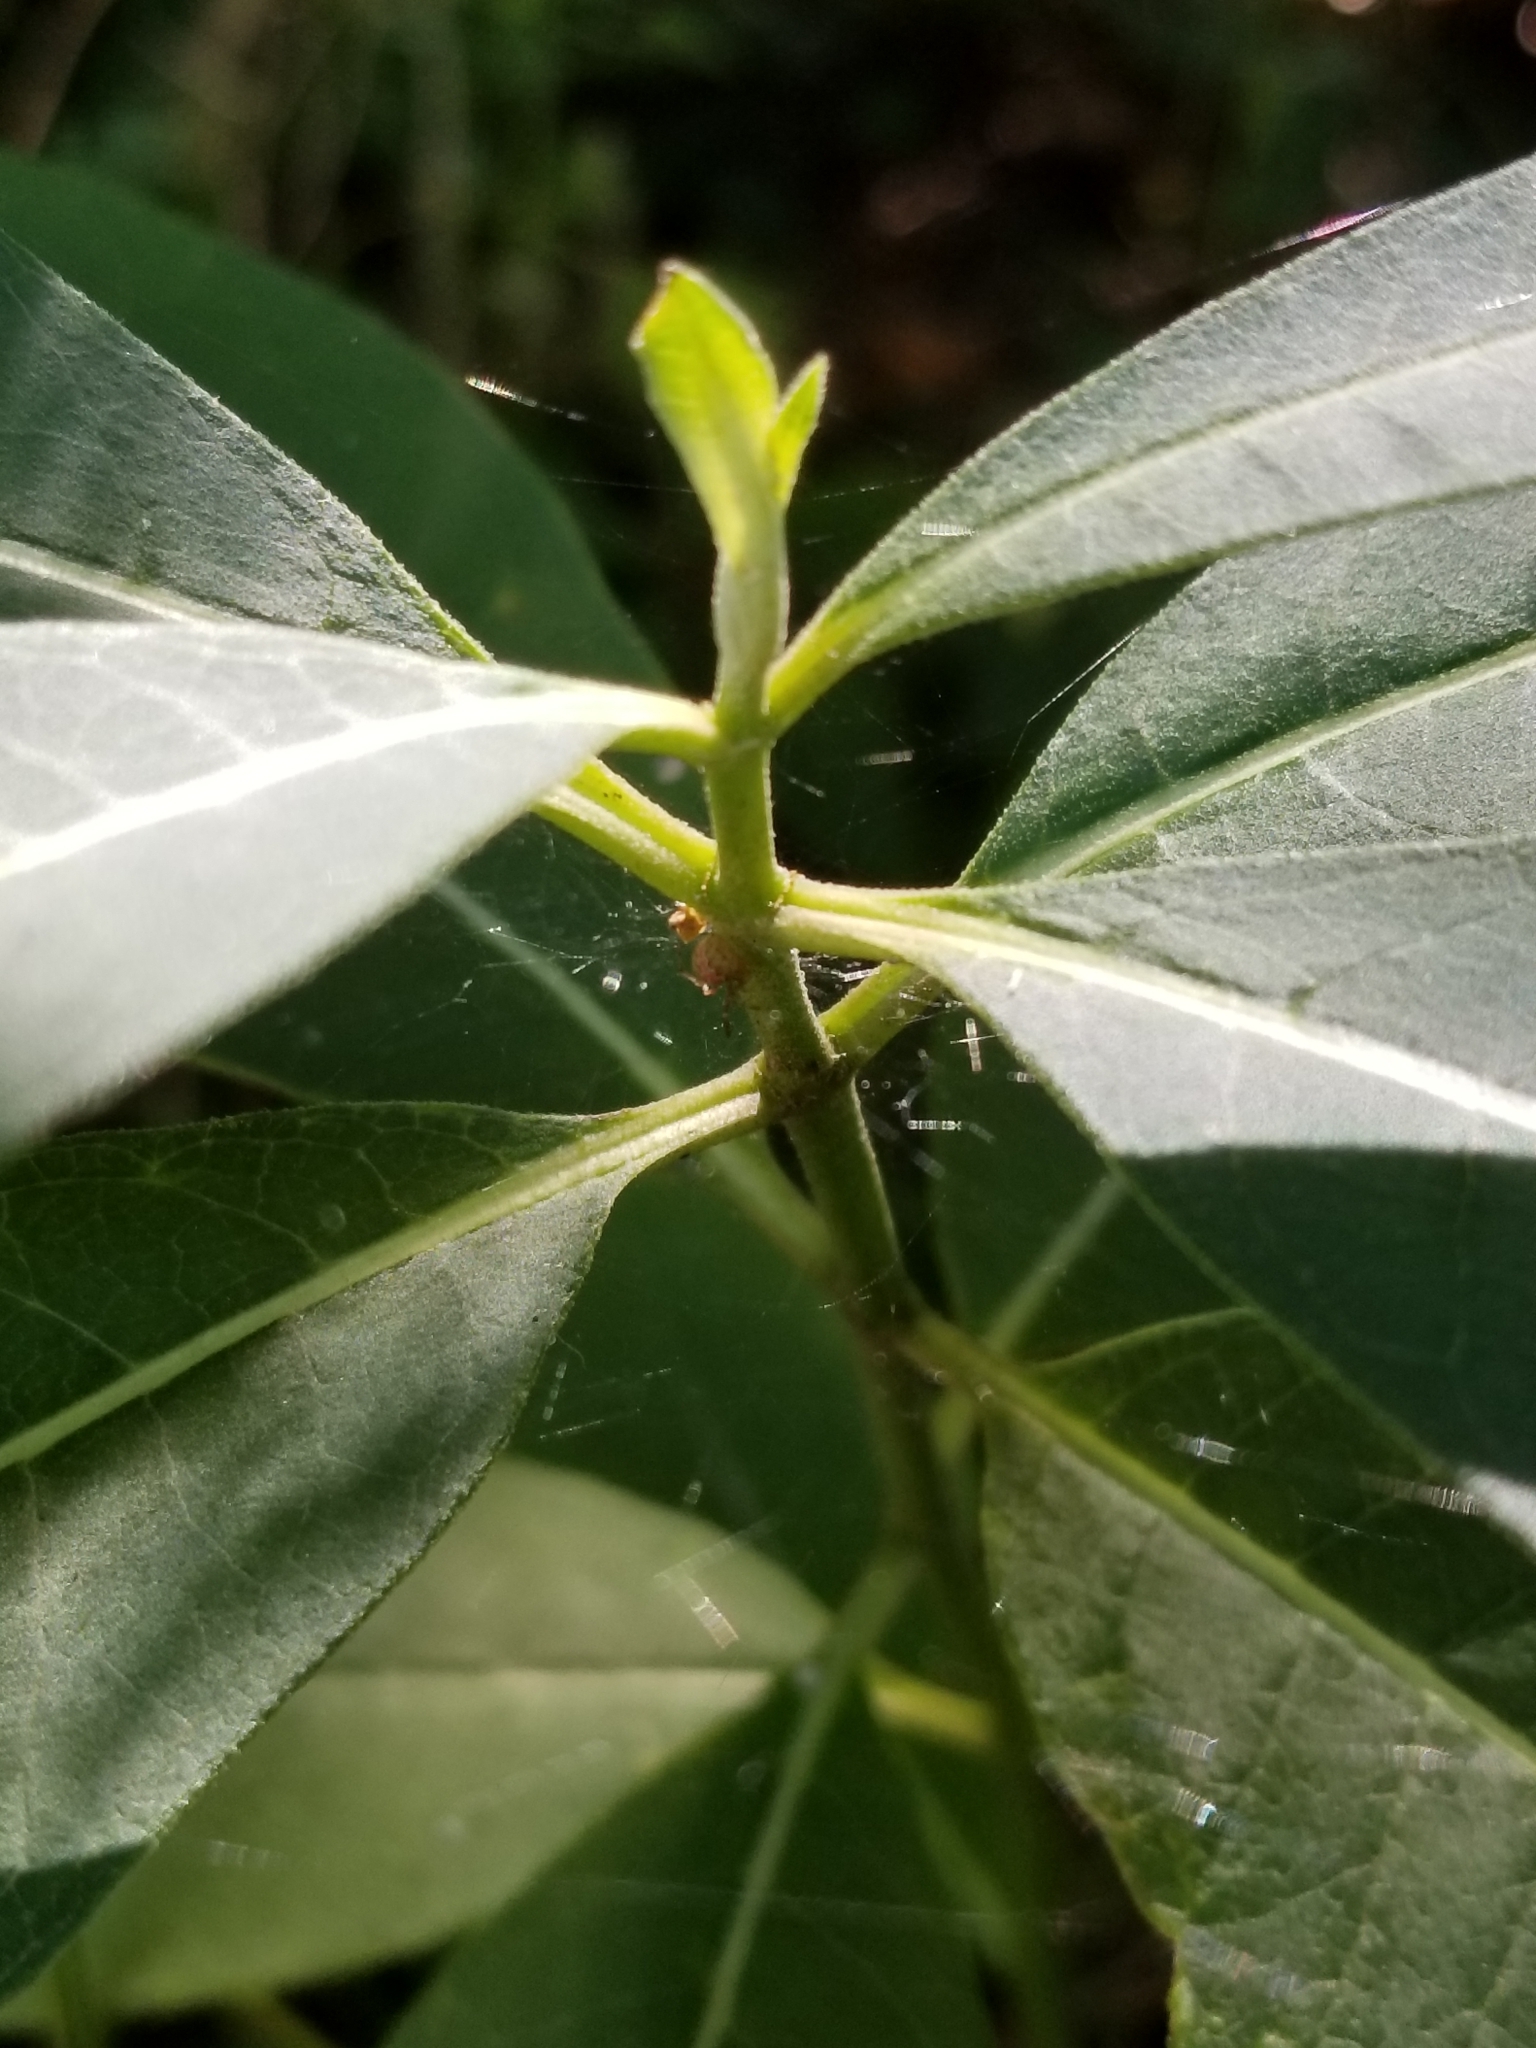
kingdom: Plantae
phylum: Tracheophyta
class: Magnoliopsida
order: Gentianales
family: Apocynaceae
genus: Asclepias
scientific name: Asclepias syriaca
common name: Common milkweed
